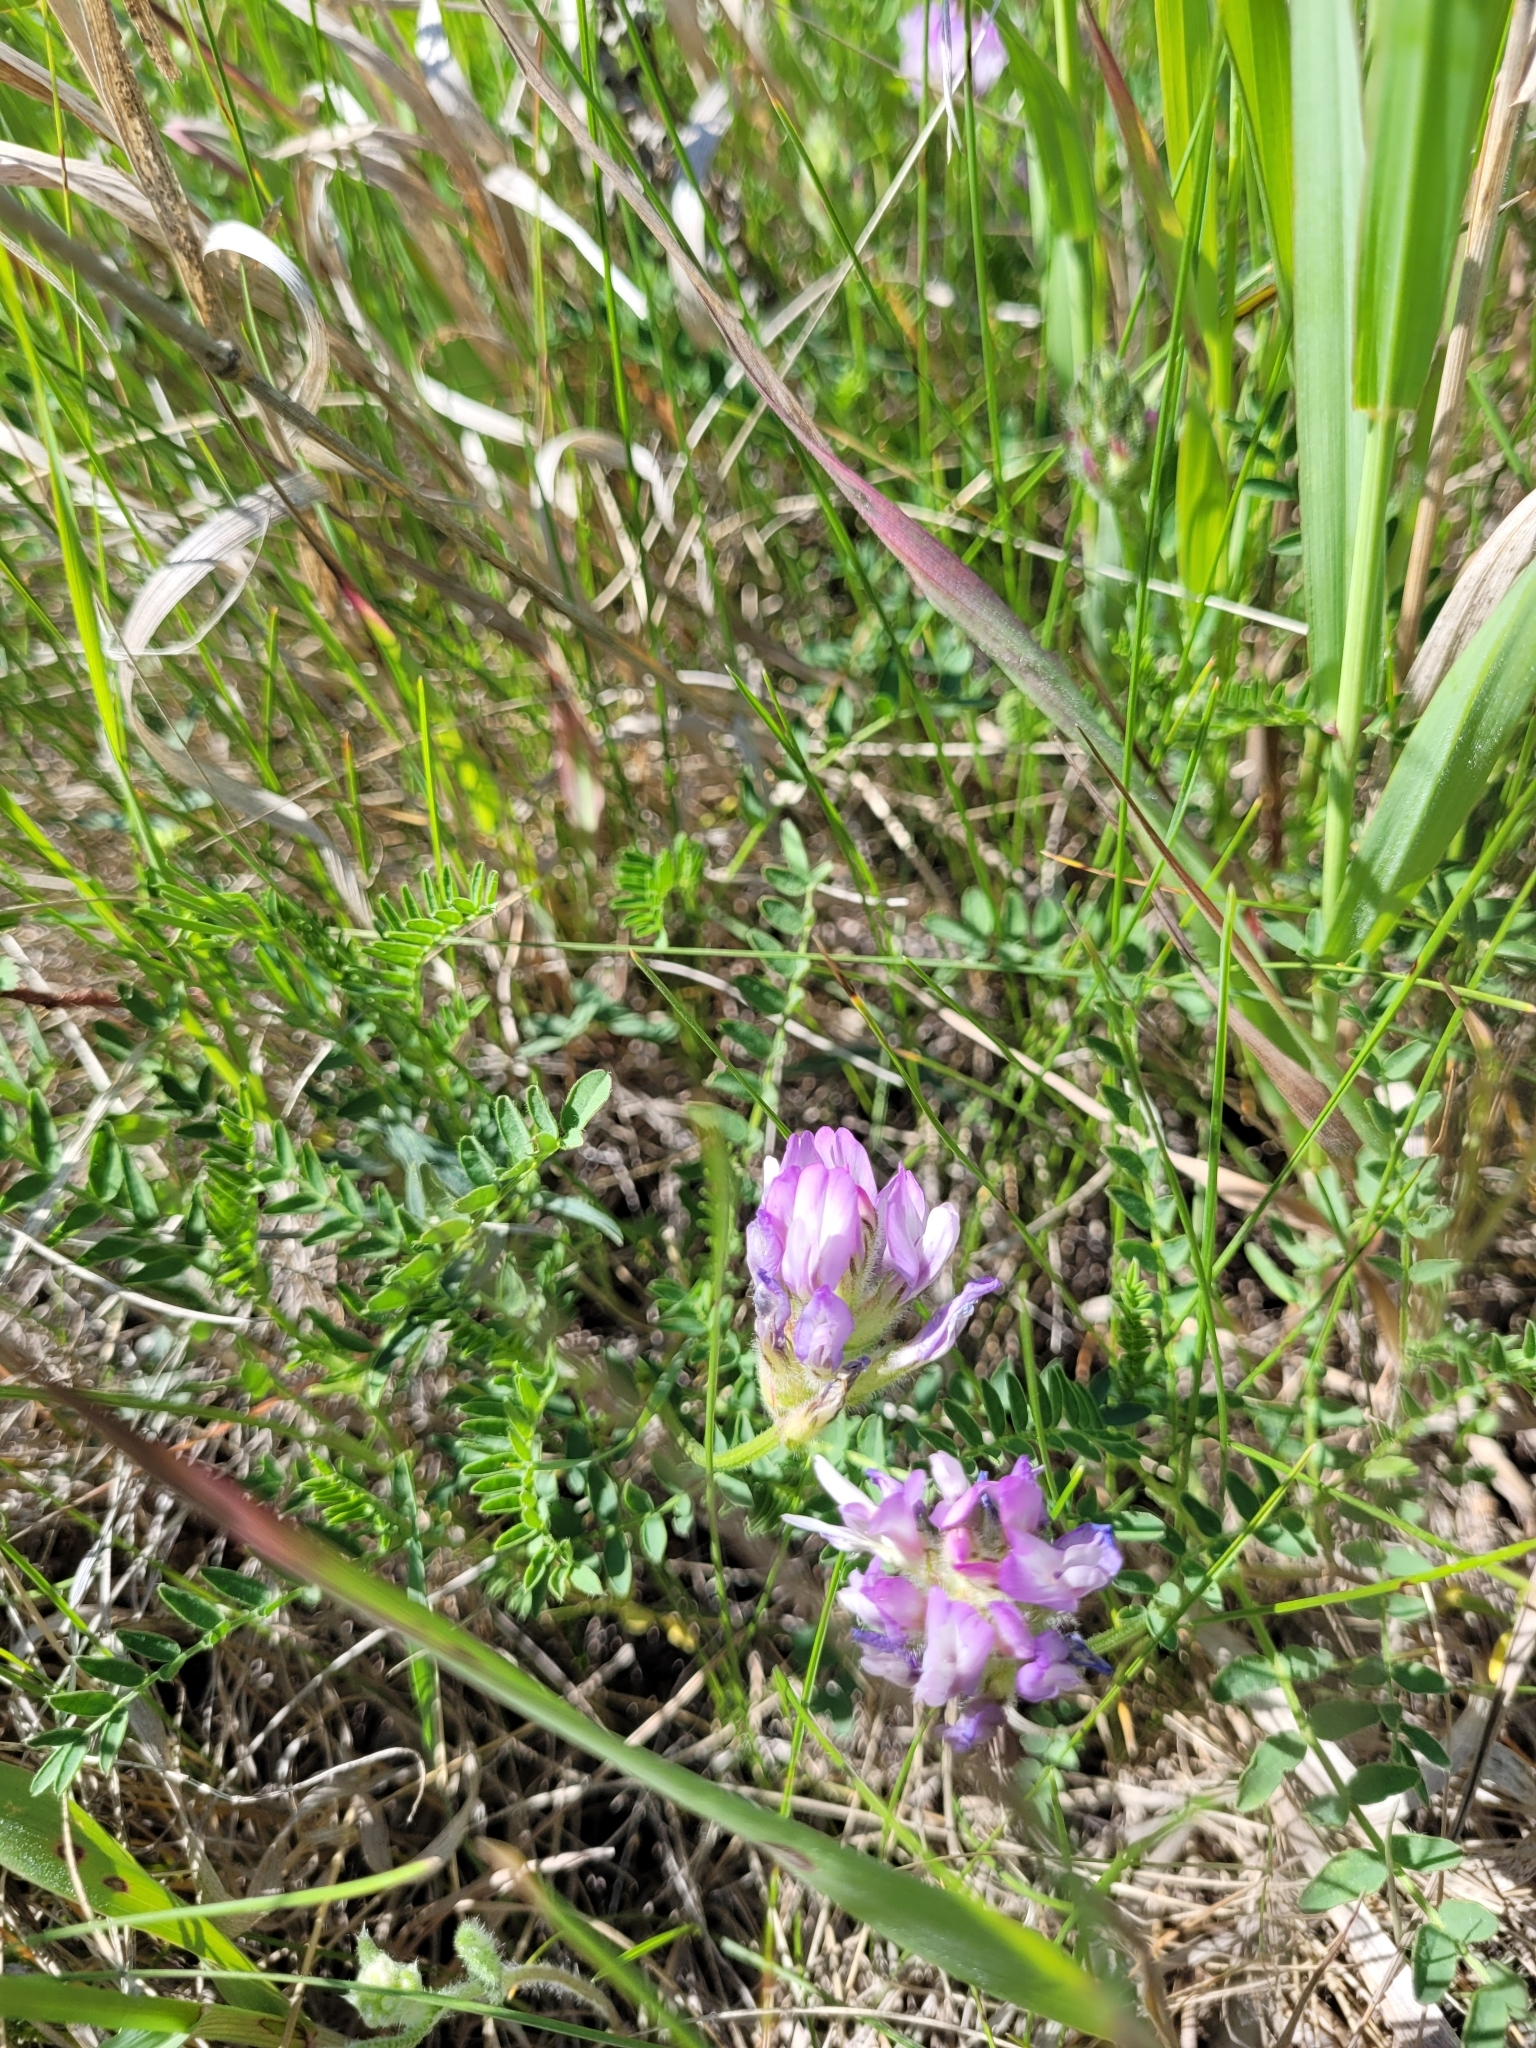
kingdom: Plantae
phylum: Tracheophyta
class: Magnoliopsida
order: Fabales
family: Fabaceae
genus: Astragalus
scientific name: Astragalus agrestis
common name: Field milk-vetch
